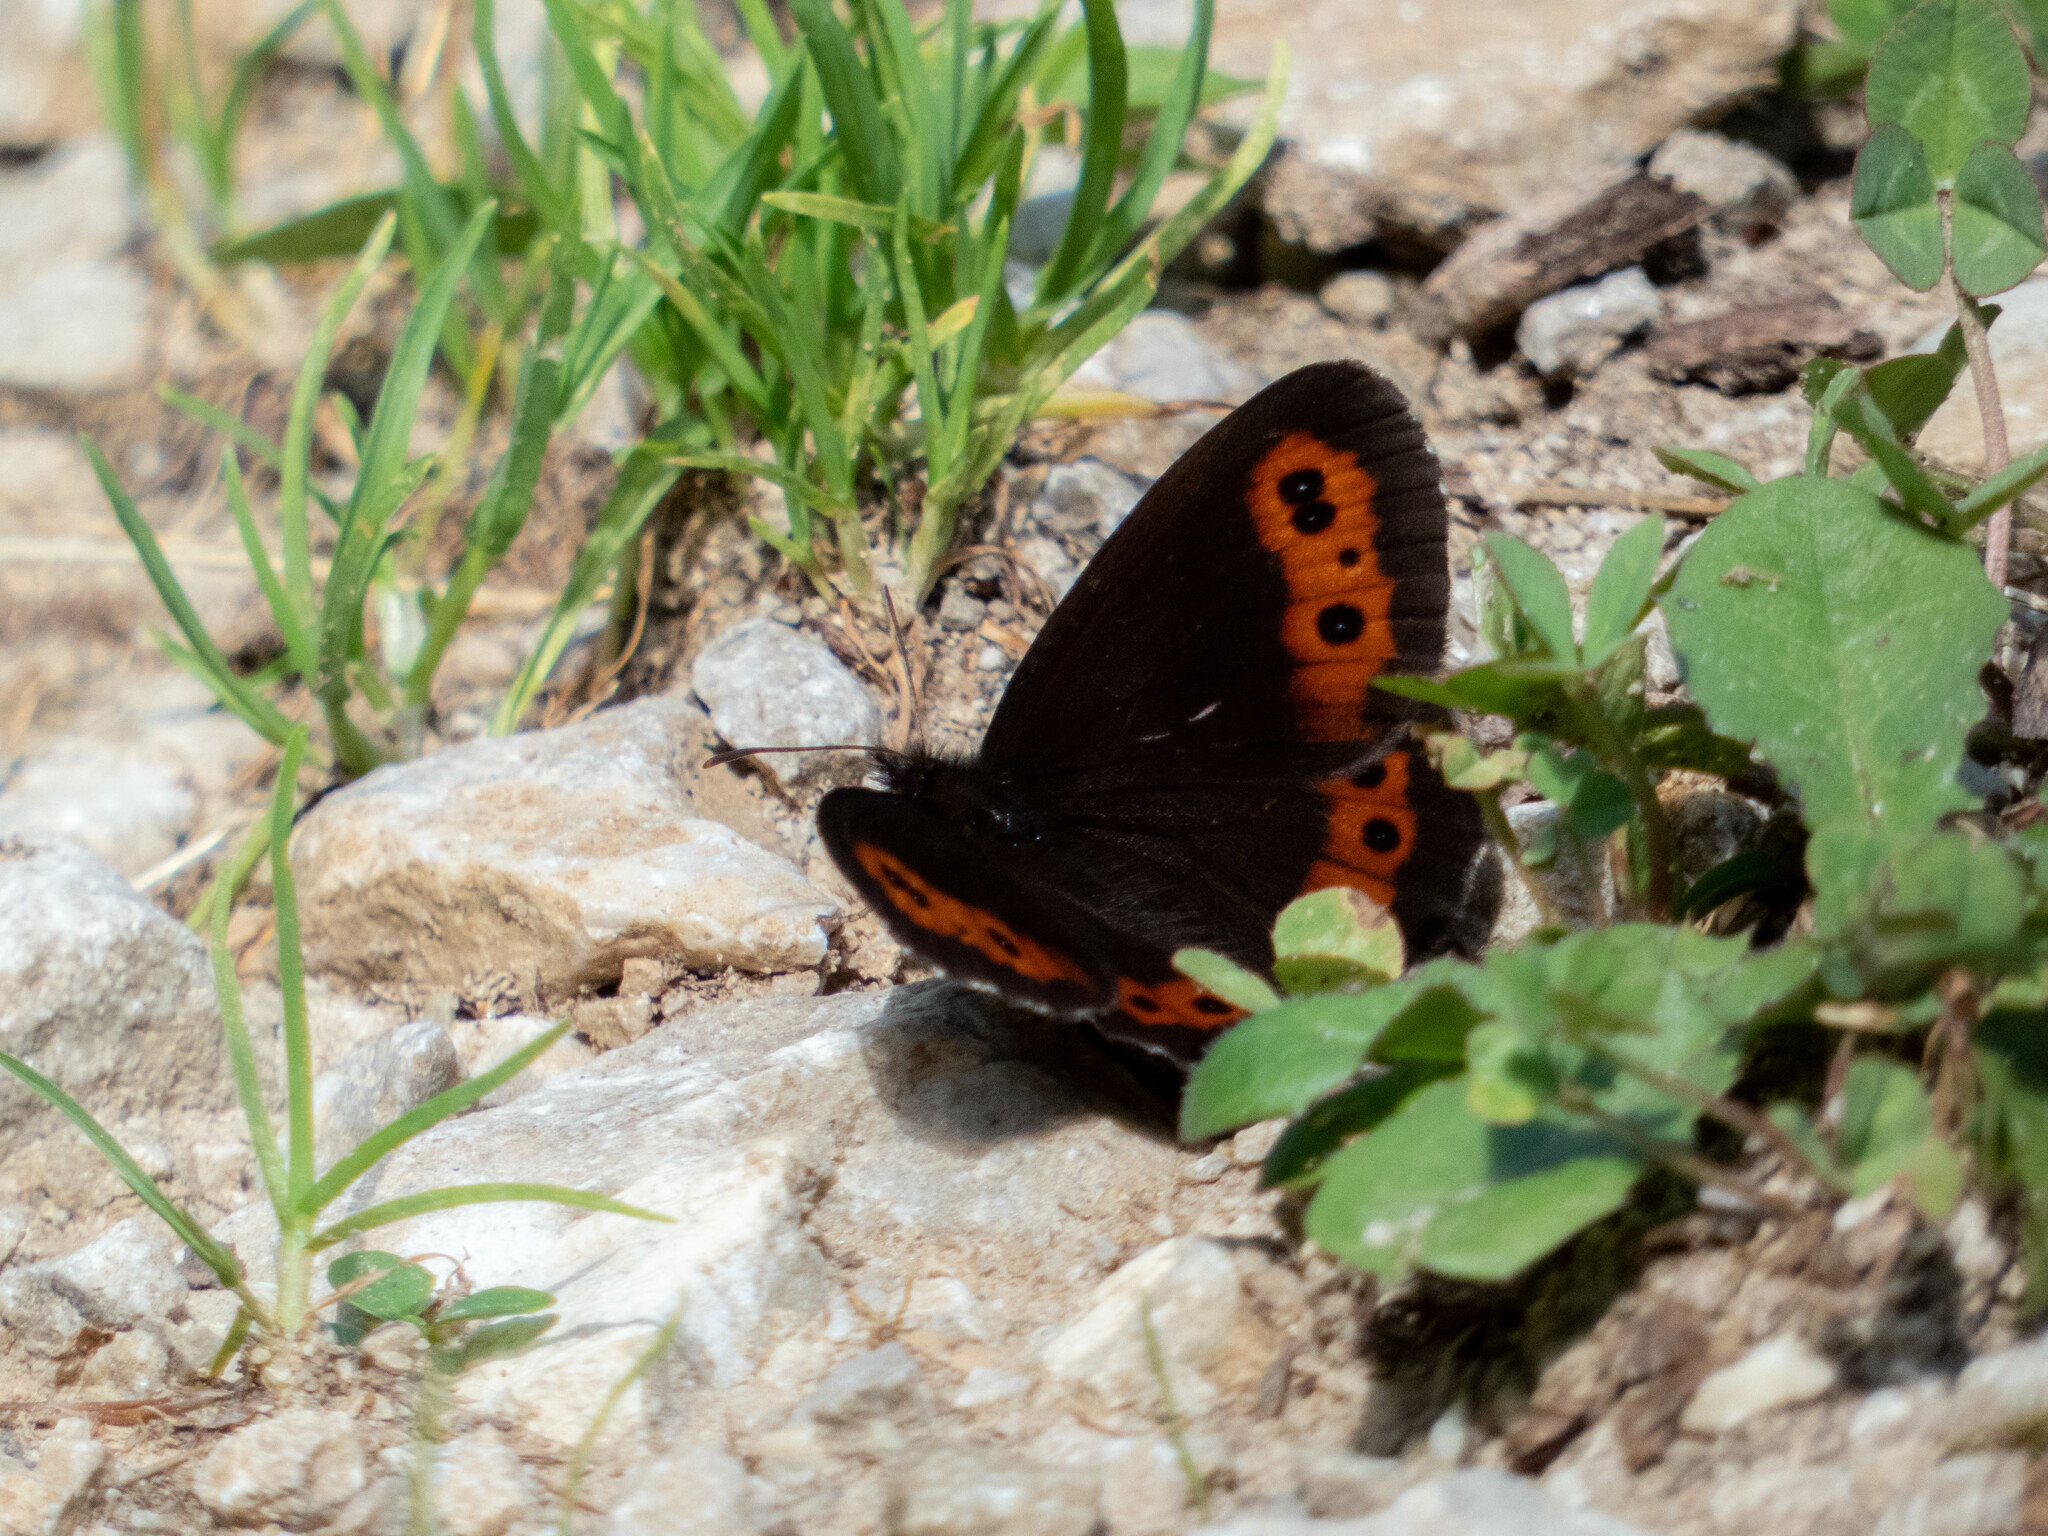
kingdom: Animalia
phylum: Arthropoda
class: Insecta
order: Lepidoptera
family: Nymphalidae
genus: Erebia
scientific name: Erebia ligea
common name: Arran brown
